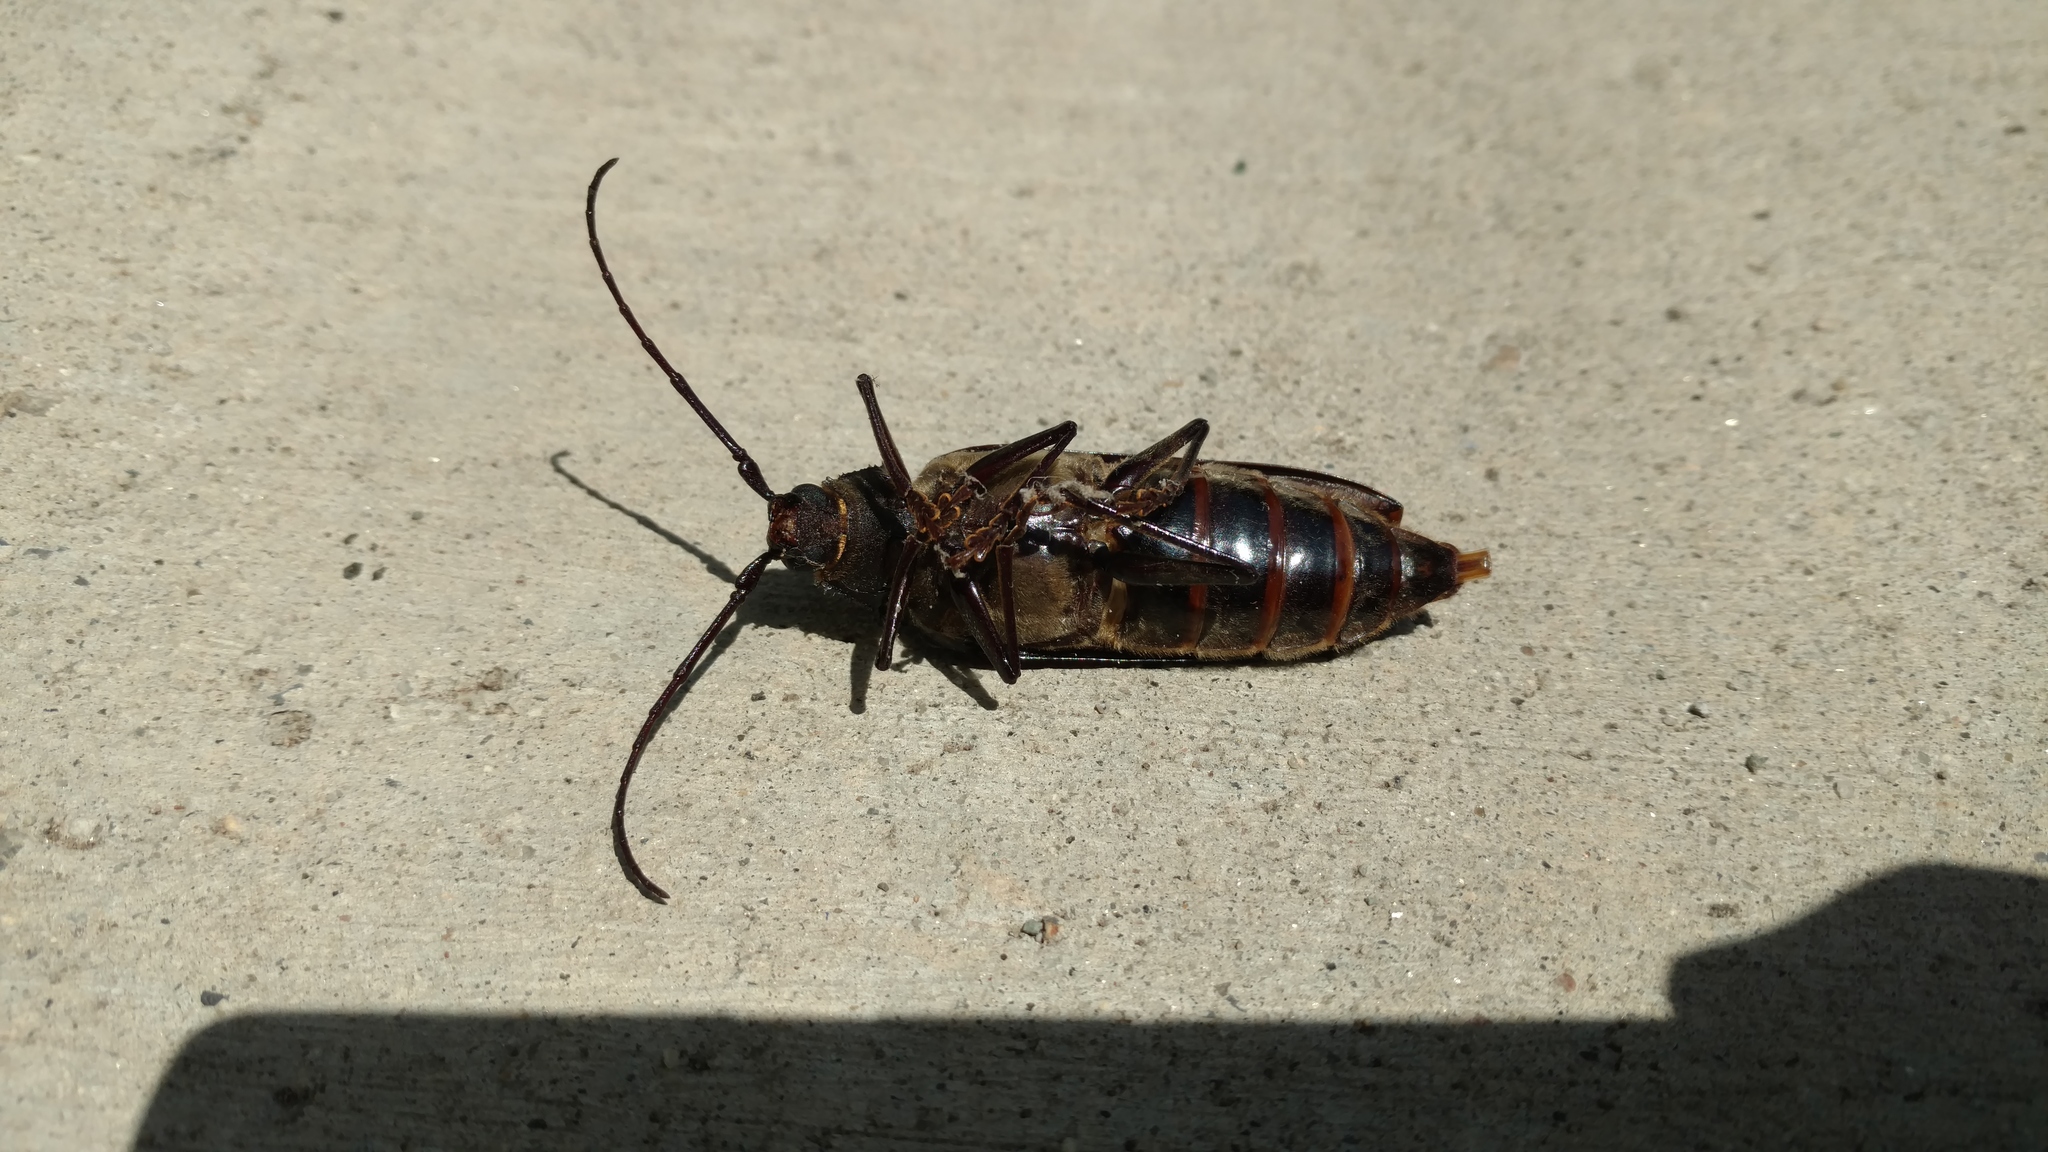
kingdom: Animalia
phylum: Arthropoda
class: Insecta
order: Coleoptera
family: Cerambycidae
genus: Trichocnemis
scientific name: Trichocnemis spiculatus
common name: Long-horned beetle
